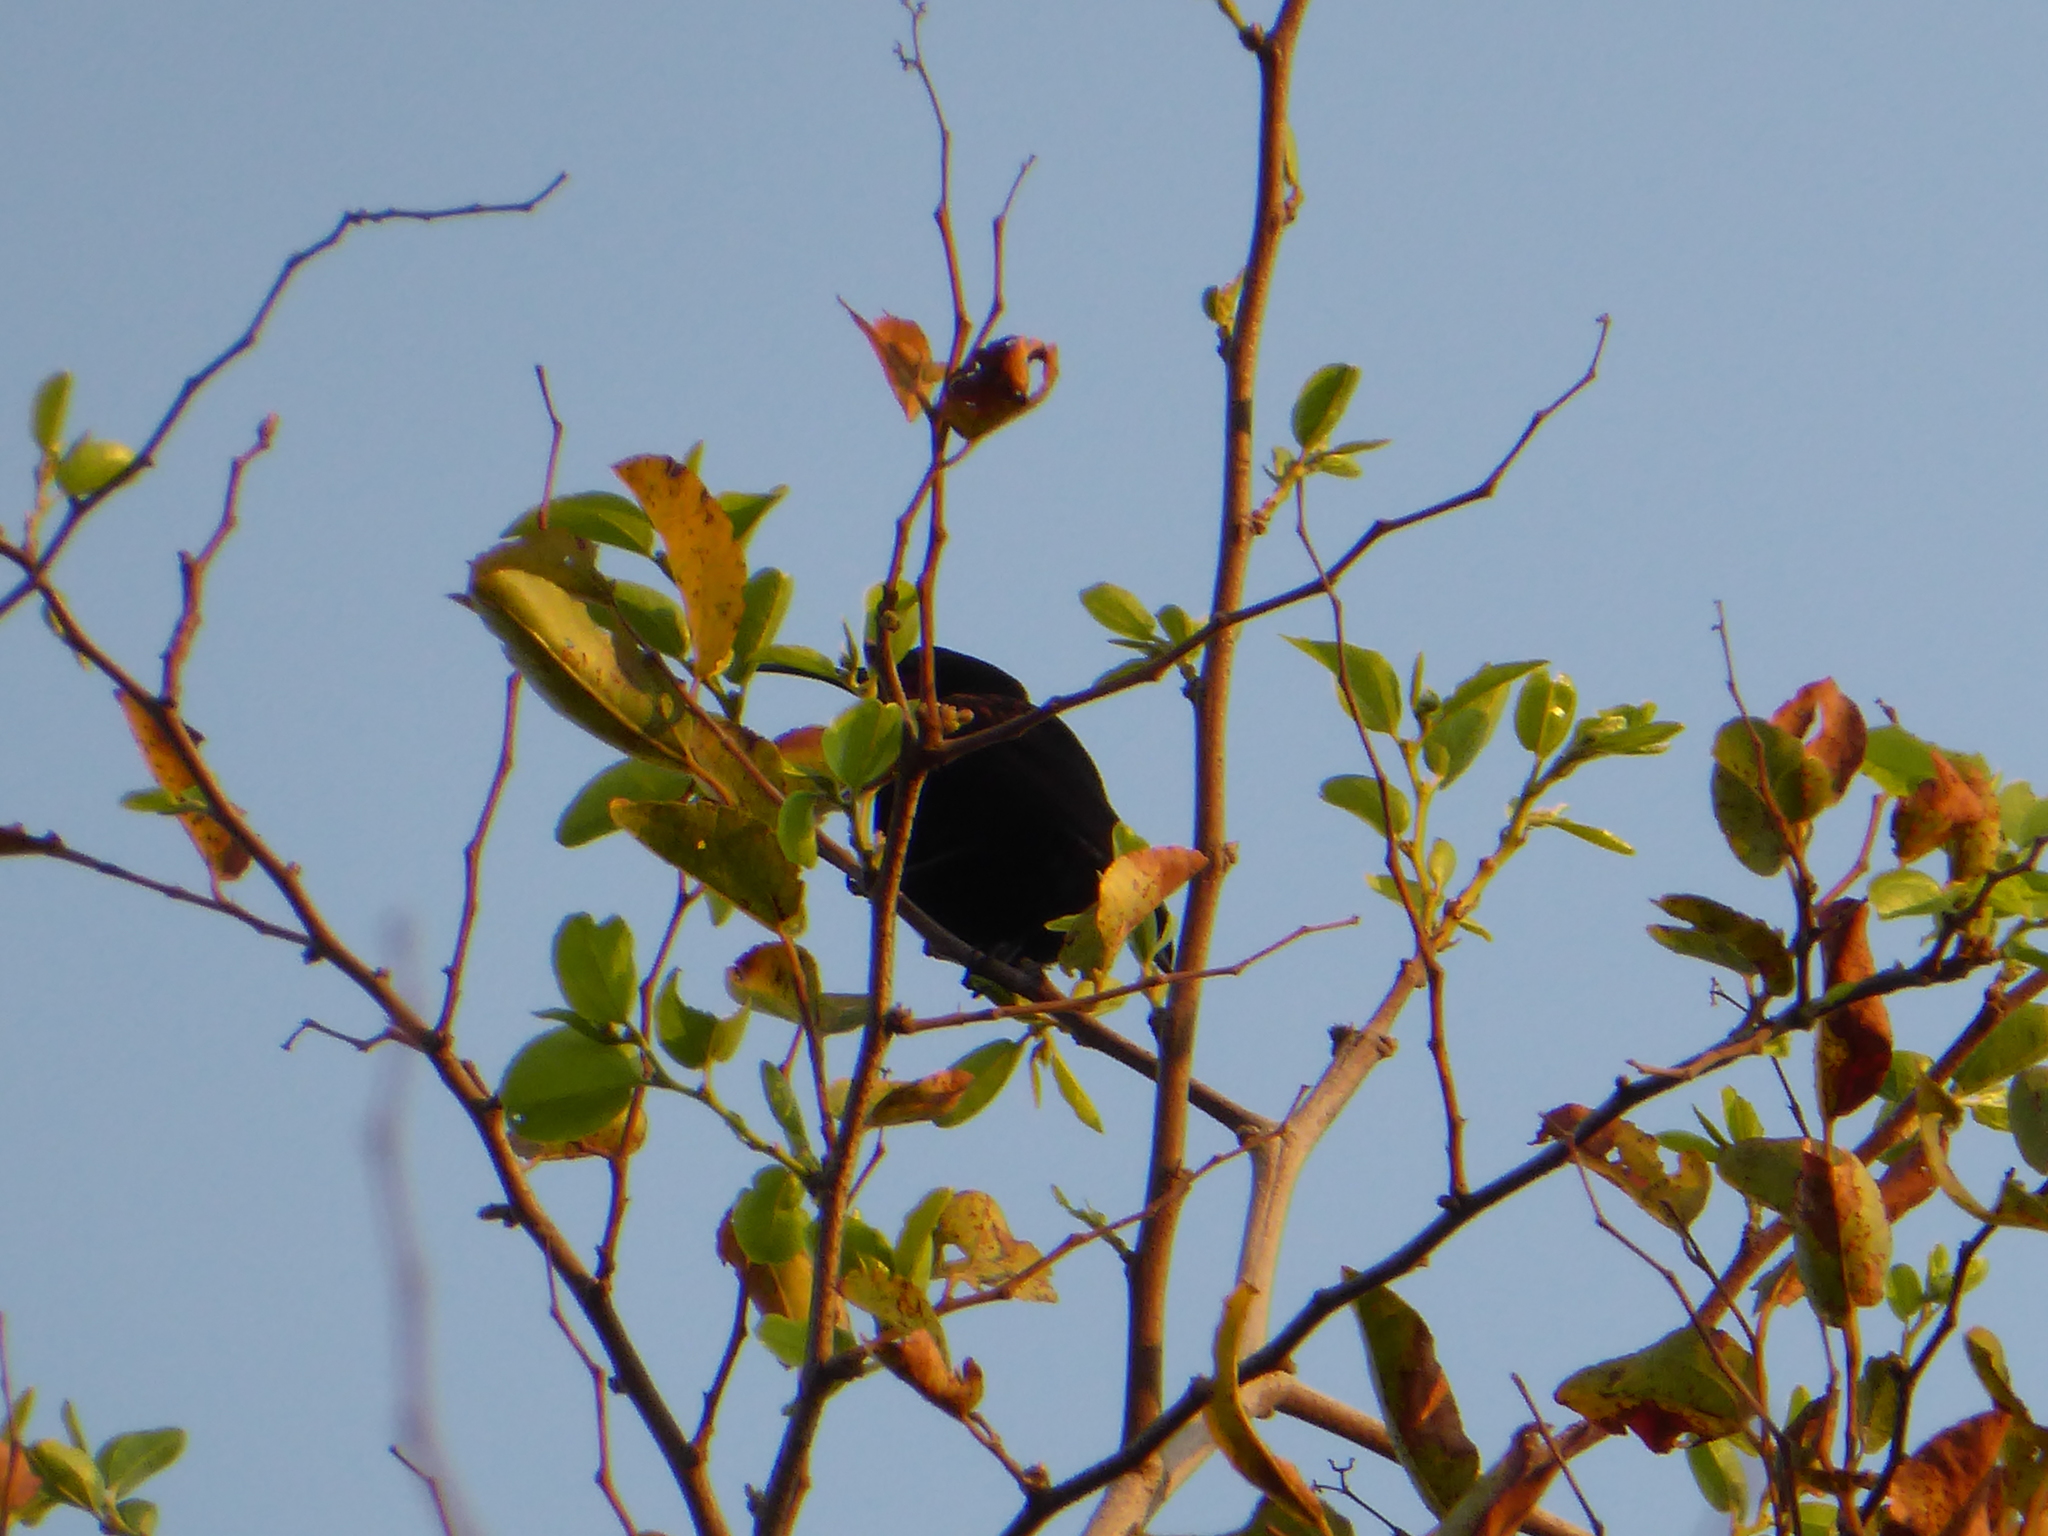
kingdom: Animalia
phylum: Chordata
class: Aves
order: Passeriformes
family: Nectariniidae
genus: Chalcomitra
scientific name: Chalcomitra amethystina
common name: Amethyst sunbird
